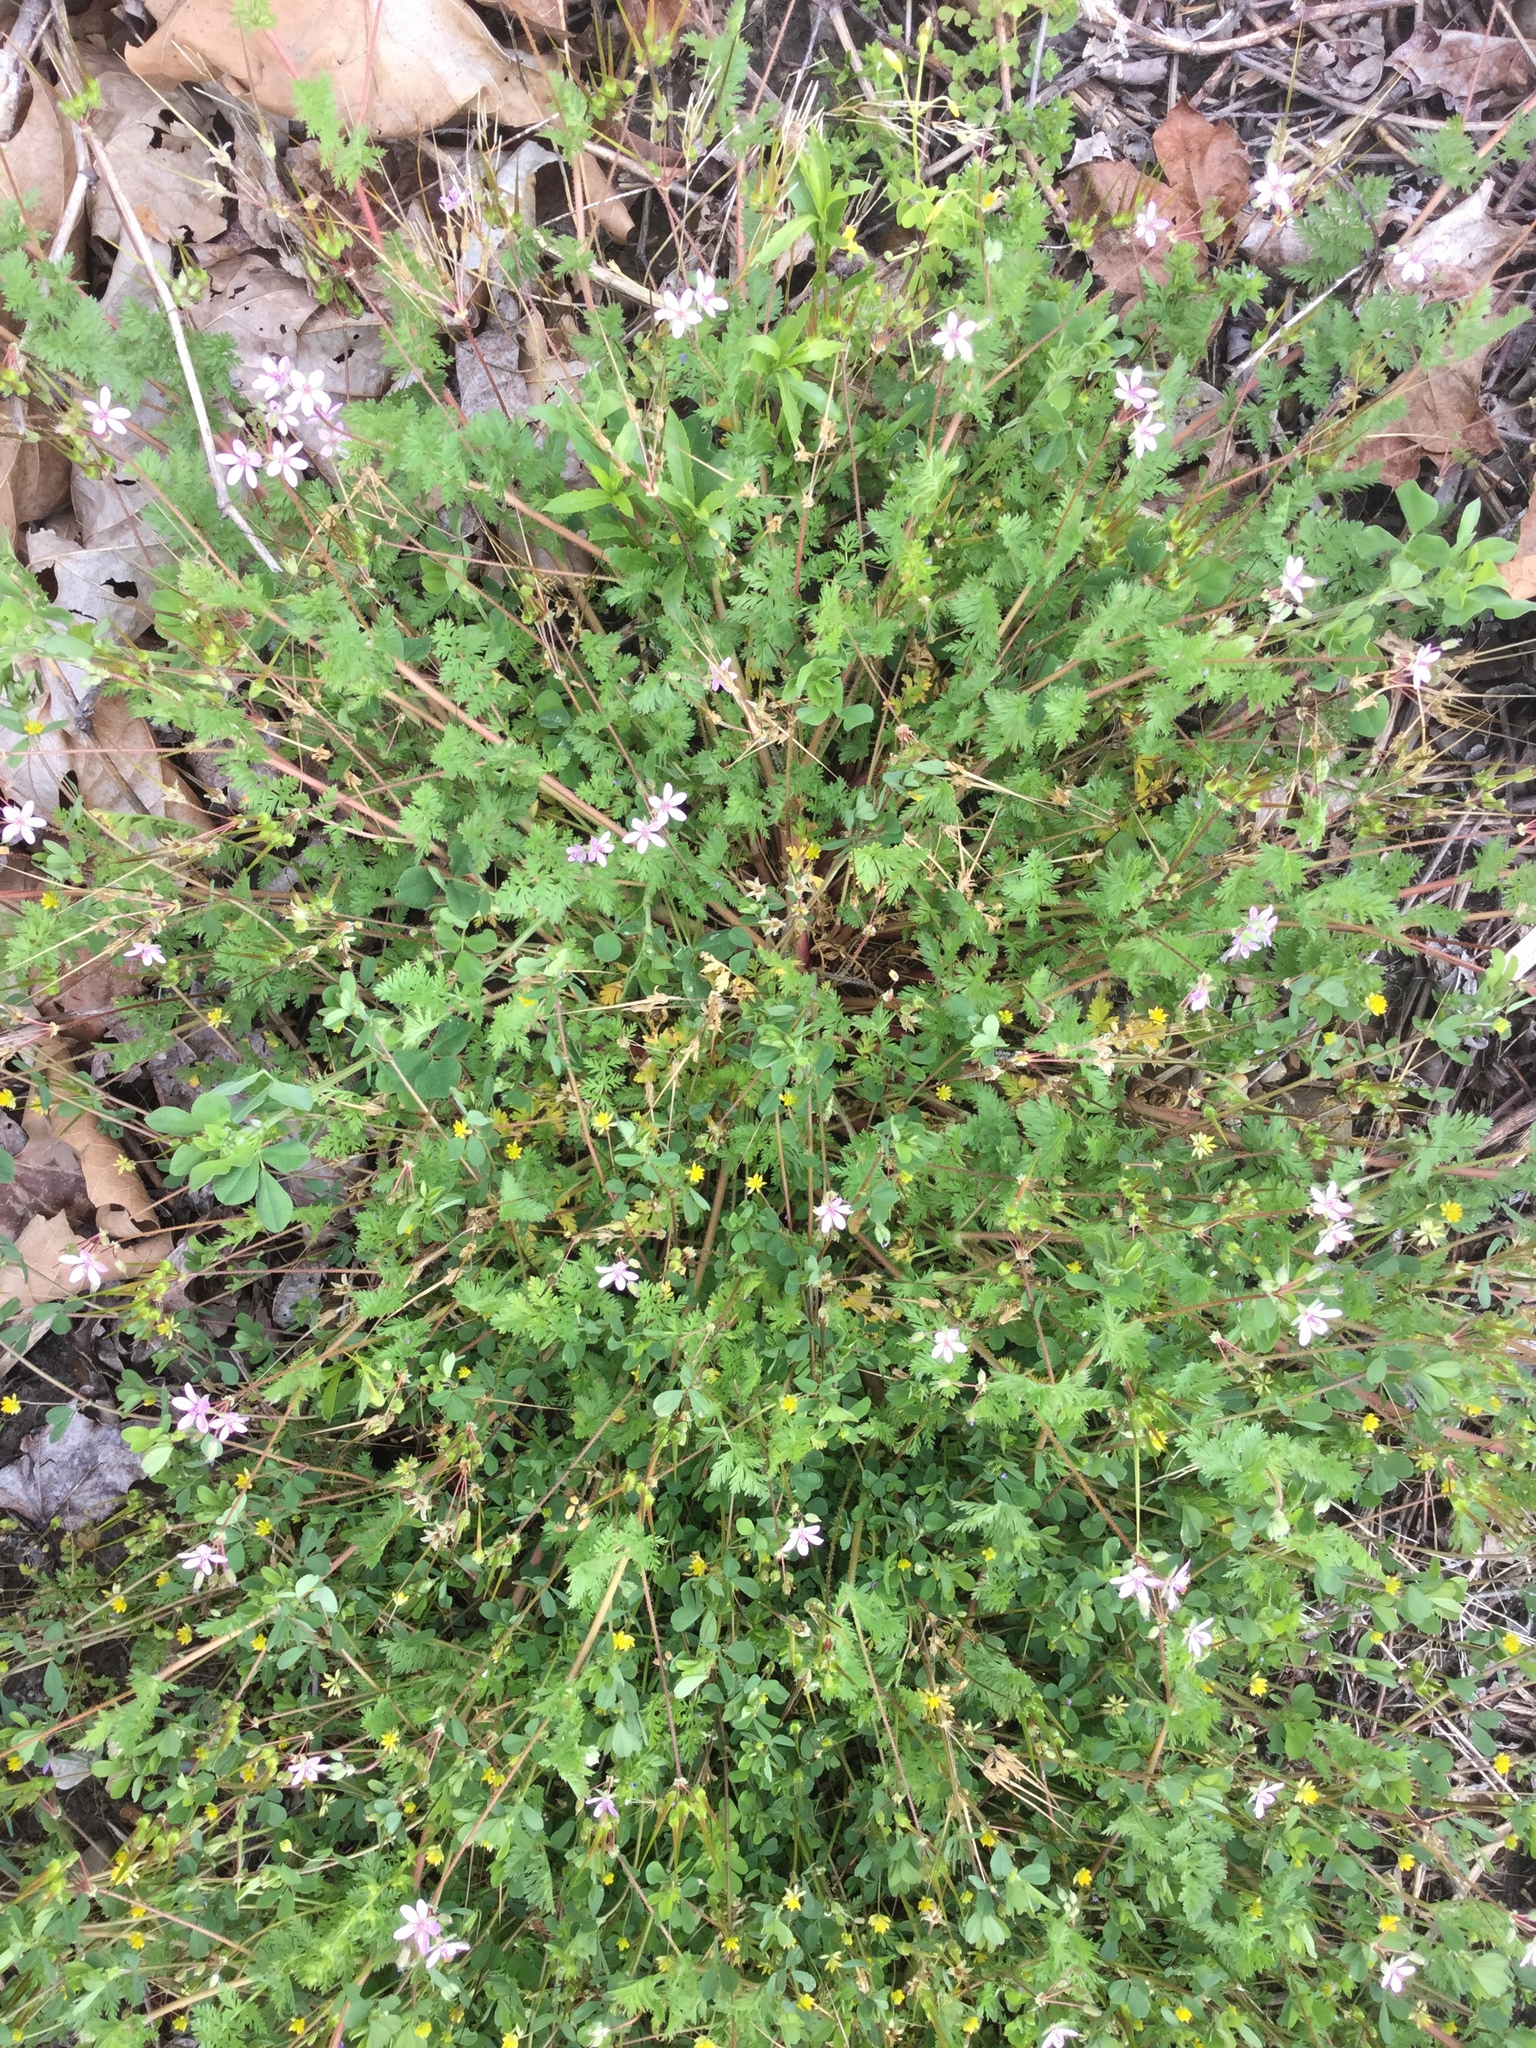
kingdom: Plantae
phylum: Tracheophyta
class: Magnoliopsida
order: Geraniales
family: Geraniaceae
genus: Erodium
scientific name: Erodium cicutarium
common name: Common stork's-bill
